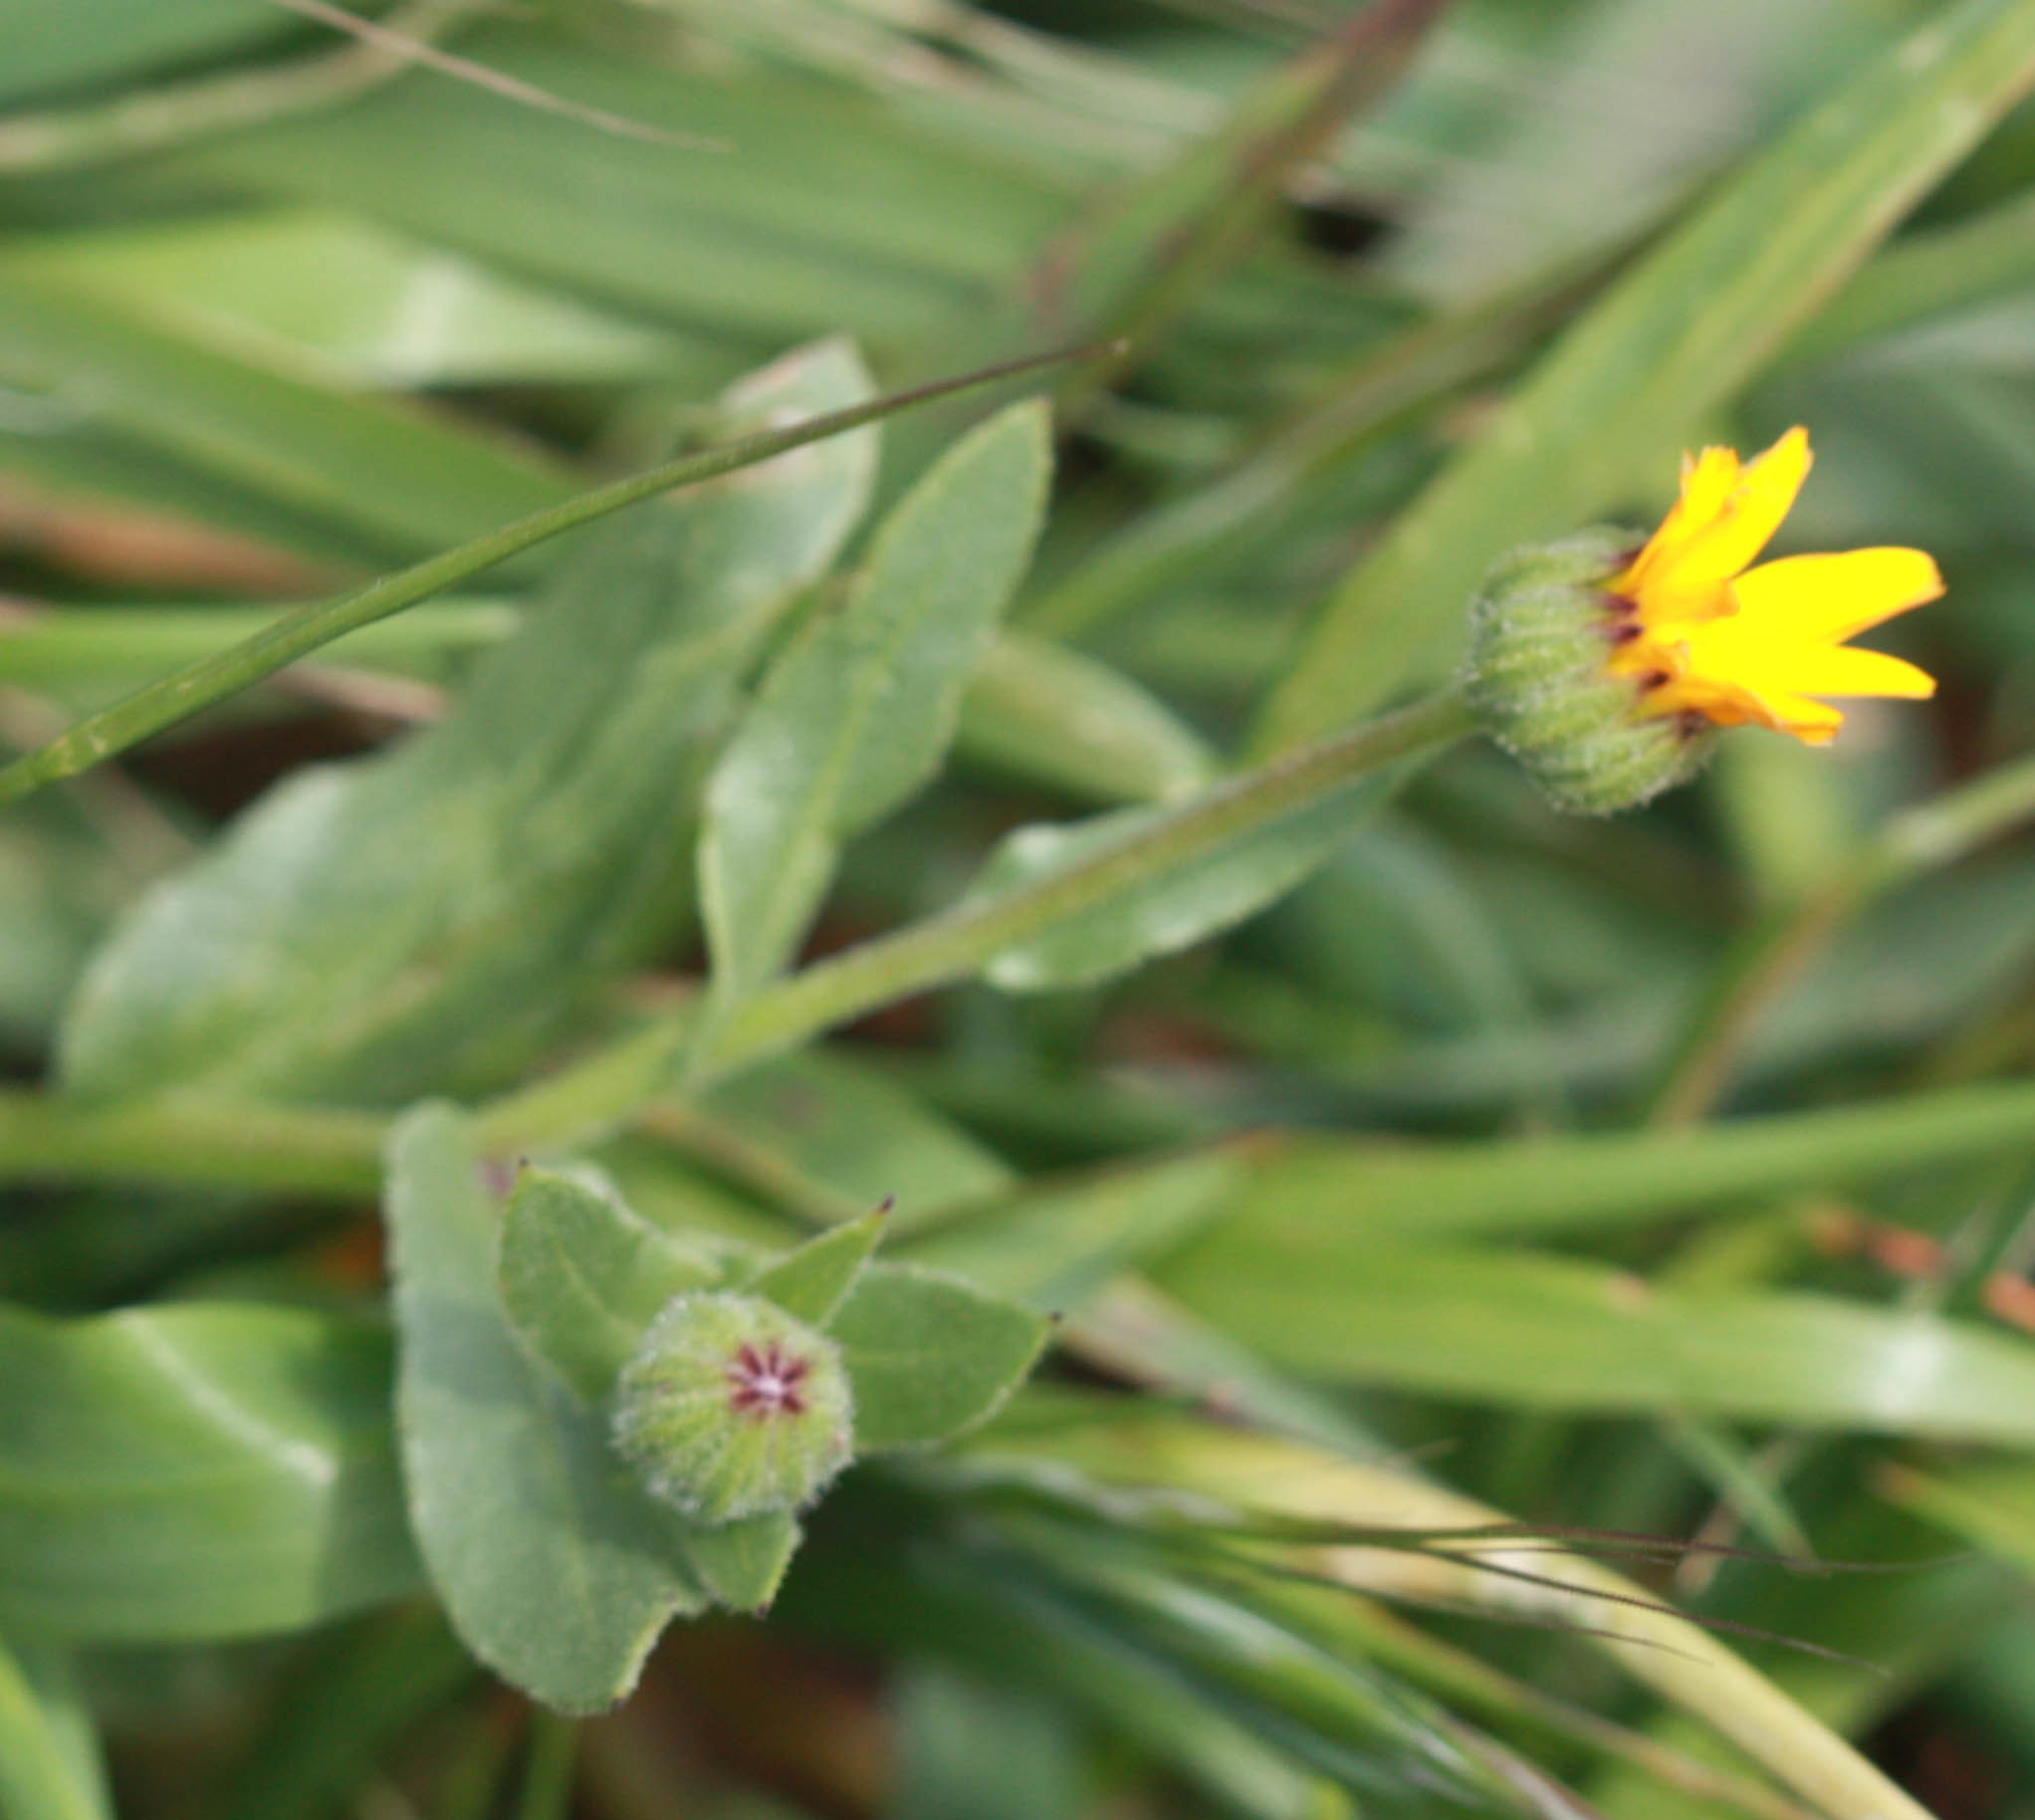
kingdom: Plantae
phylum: Tracheophyta
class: Magnoliopsida
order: Asterales
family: Asteraceae
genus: Calendula
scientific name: Calendula arvensis
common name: Field marigold
